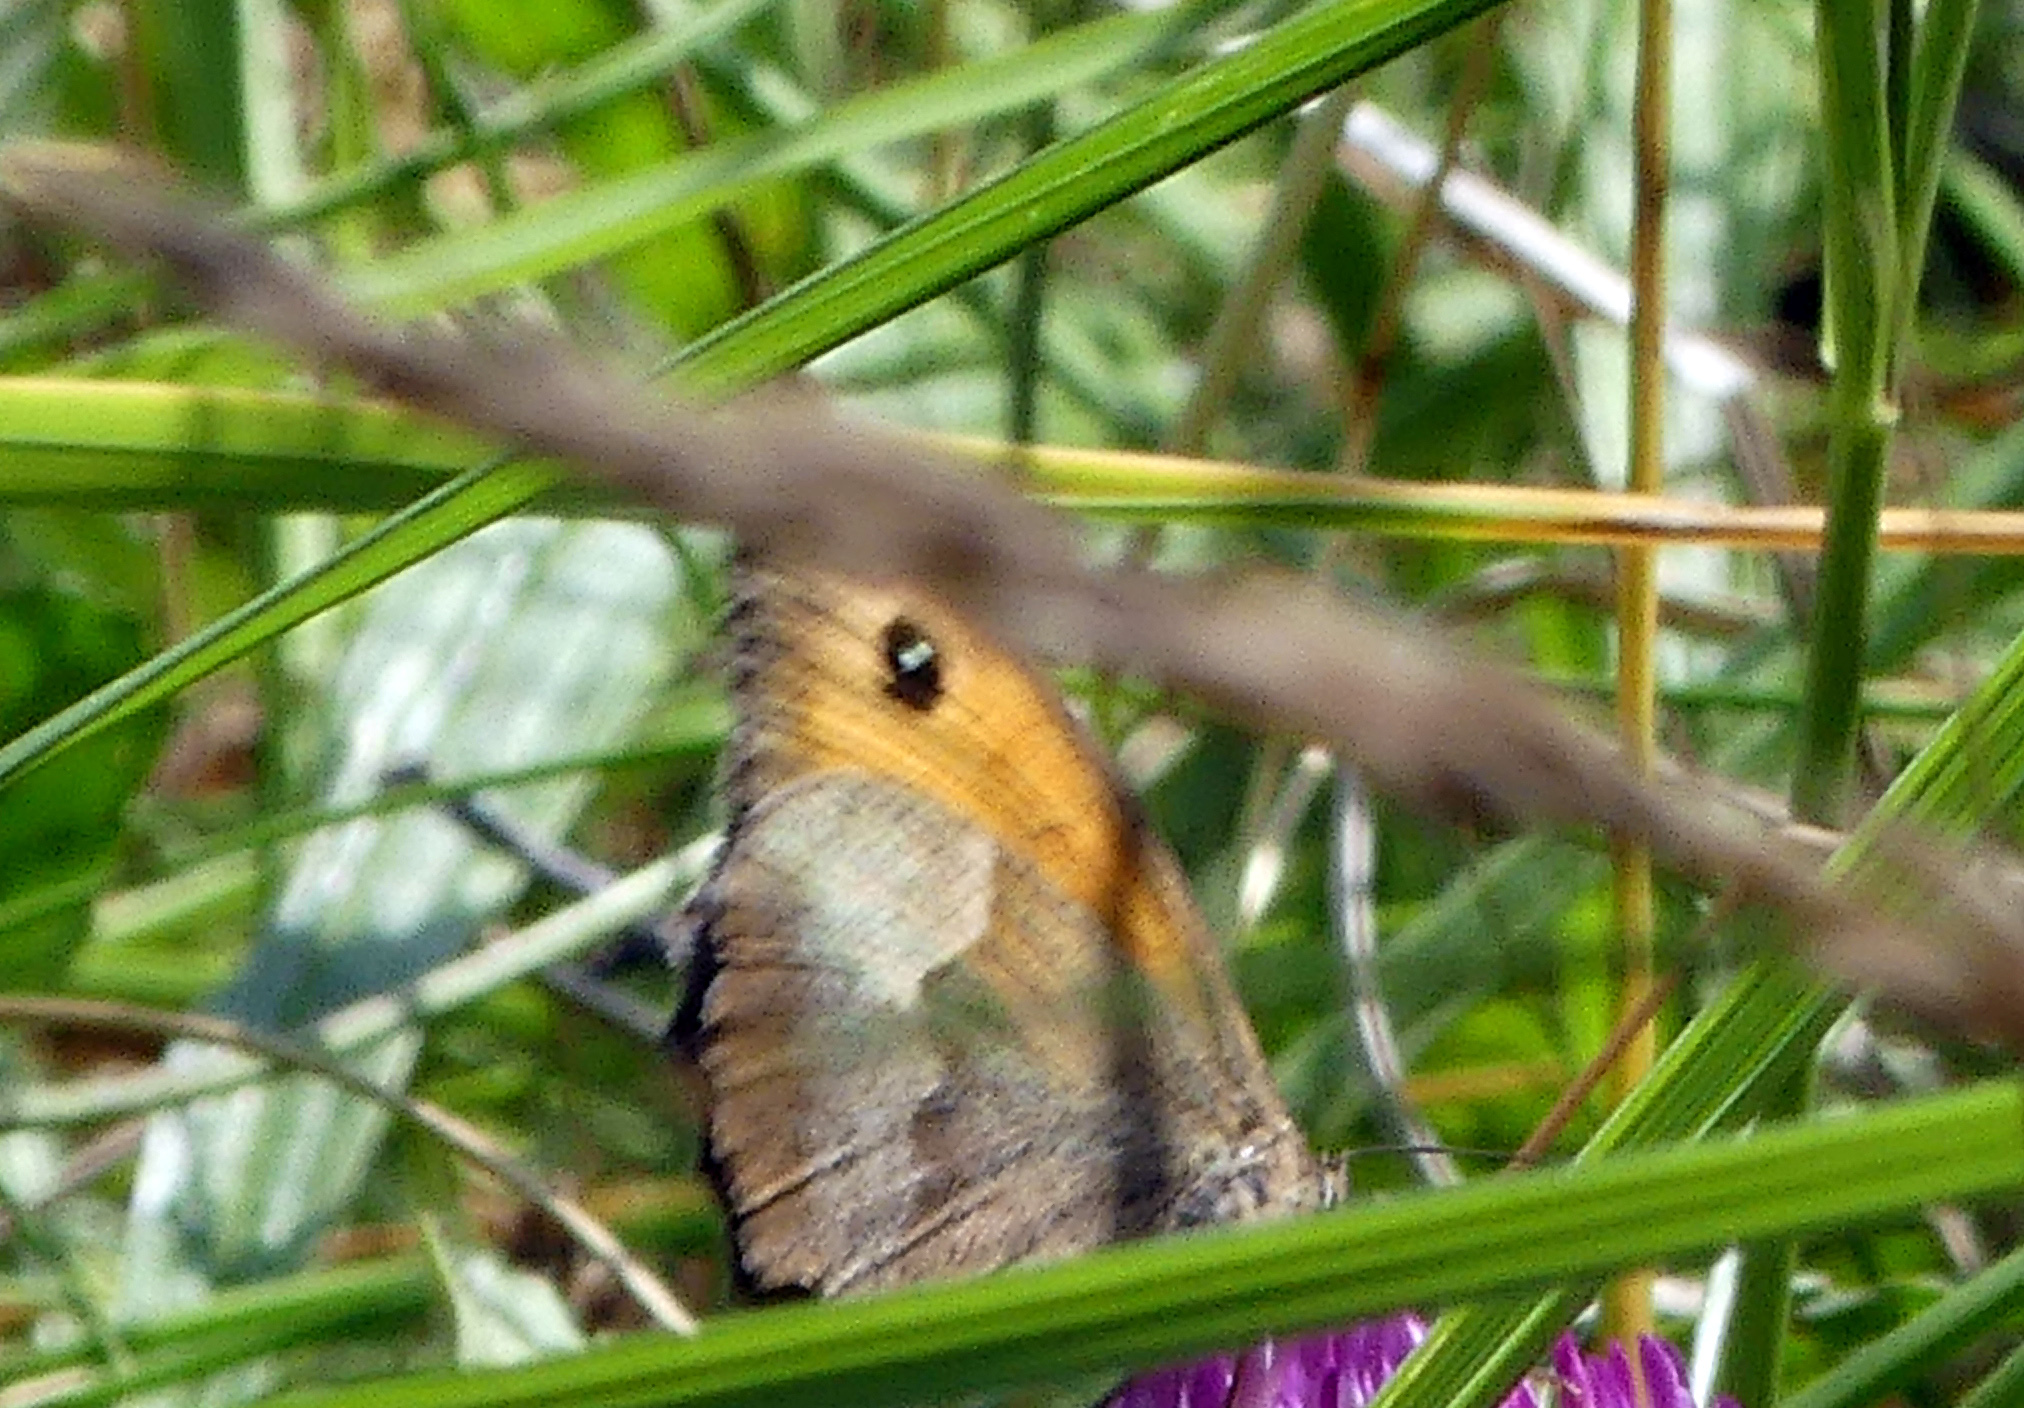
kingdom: Animalia
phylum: Arthropoda
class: Insecta
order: Lepidoptera
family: Nymphalidae
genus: Maniola
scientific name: Maniola jurtina
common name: Meadow brown
